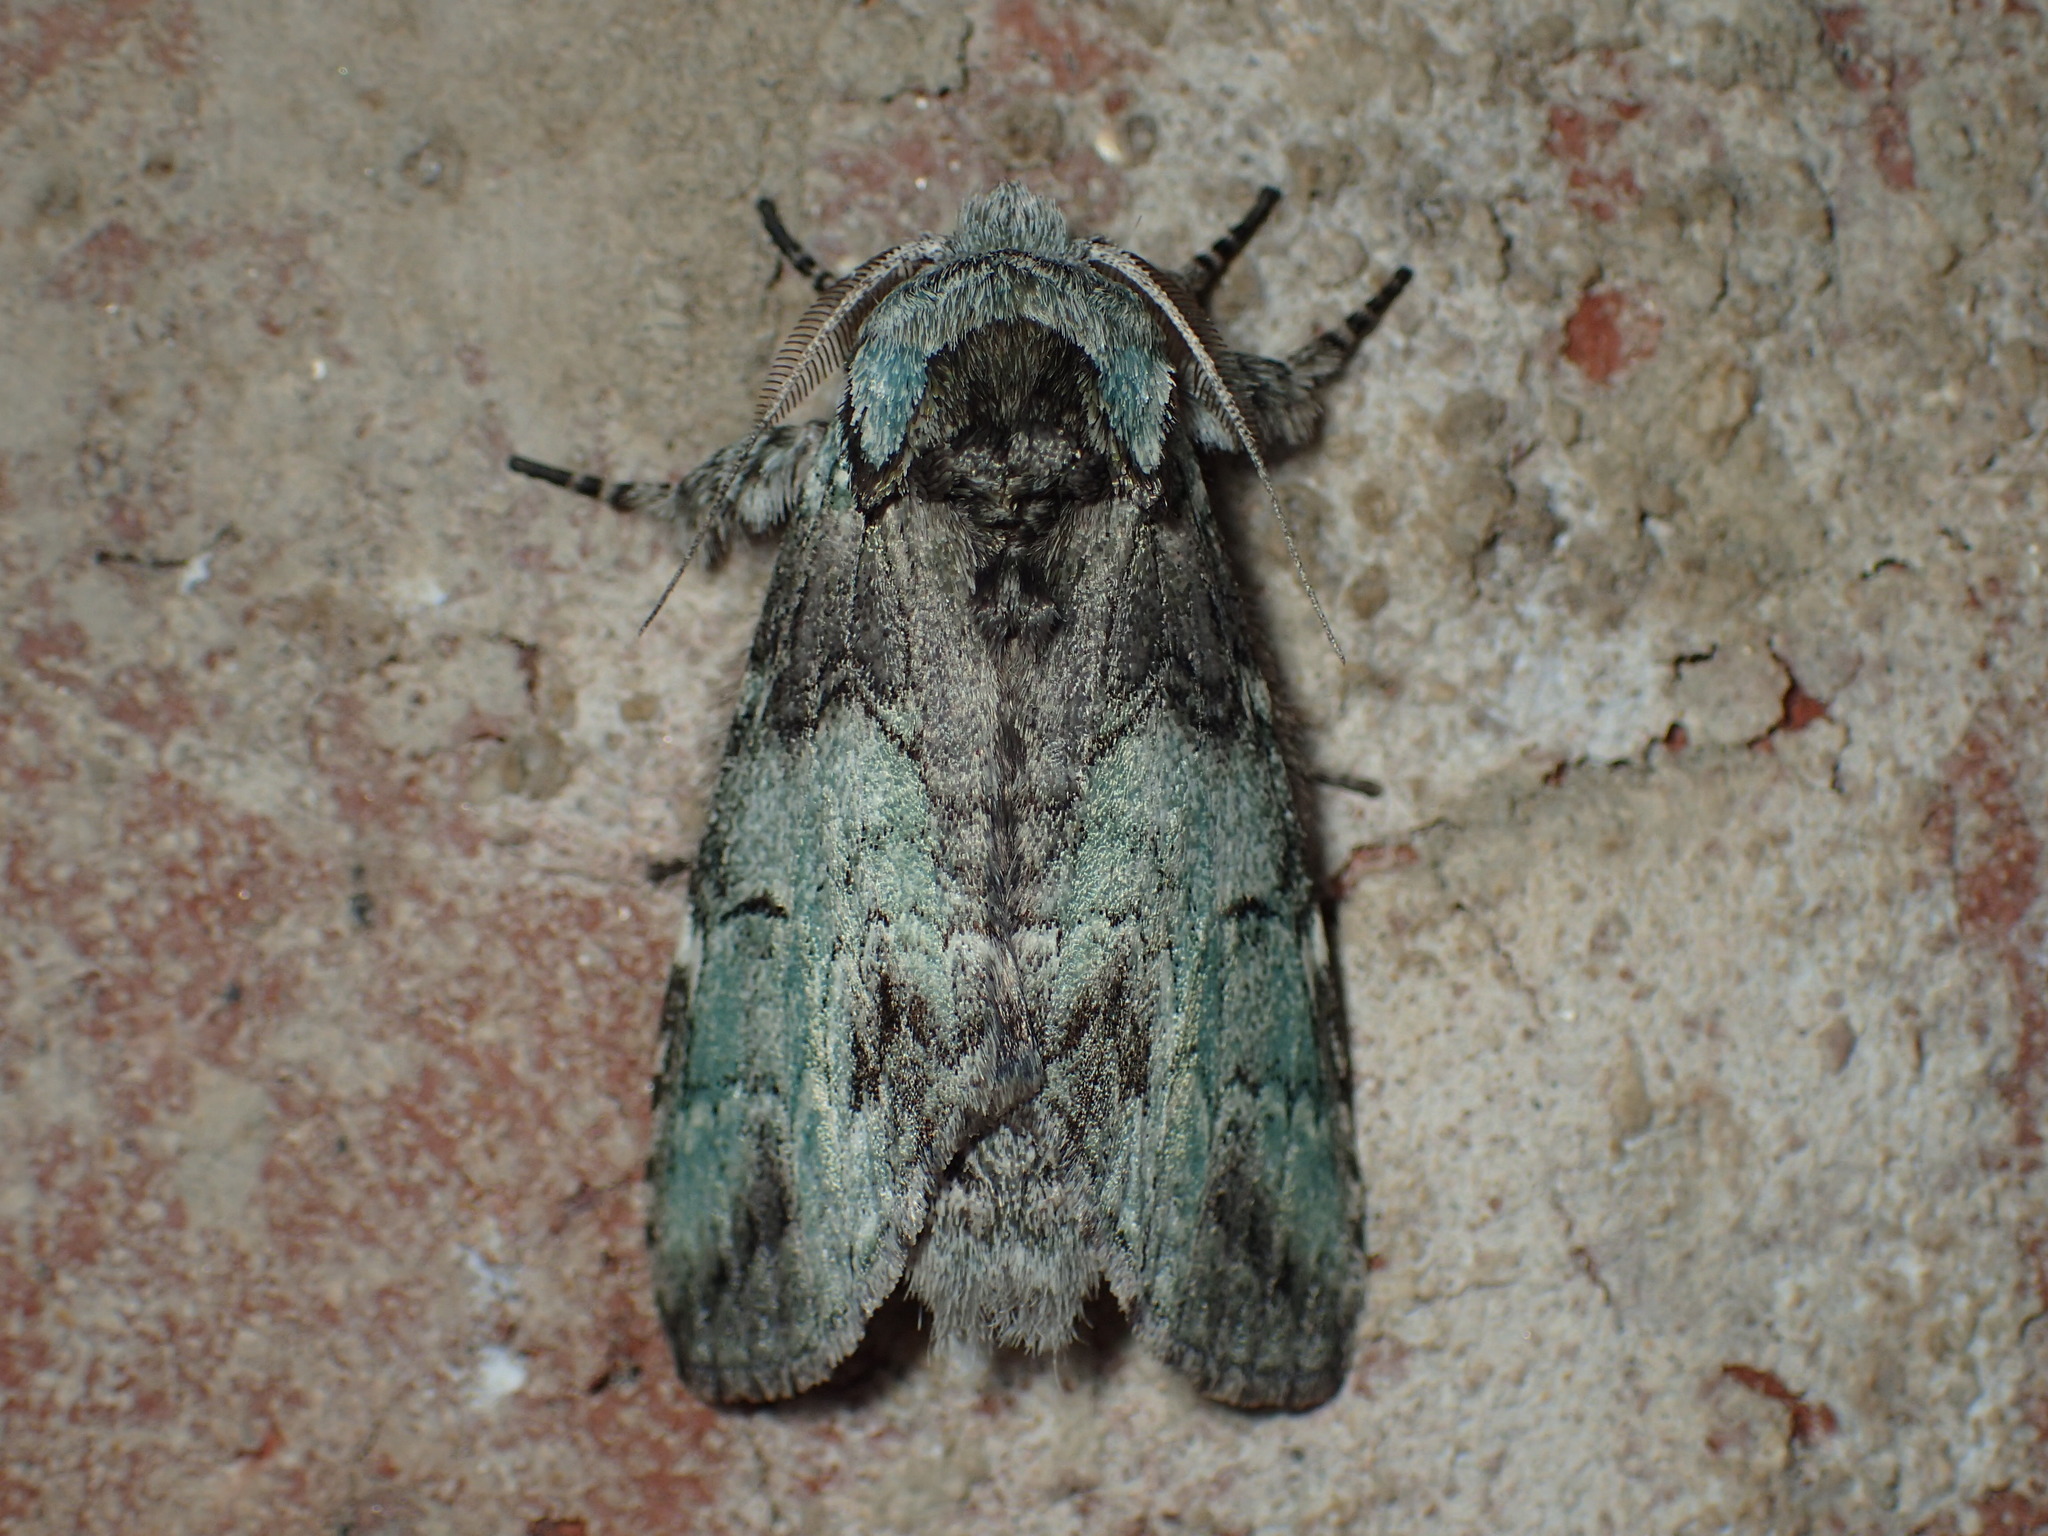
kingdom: Animalia
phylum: Arthropoda
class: Insecta
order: Lepidoptera
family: Notodontidae
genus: Macrurocampa
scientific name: Macrurocampa marthesia
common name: Mottled prominent
